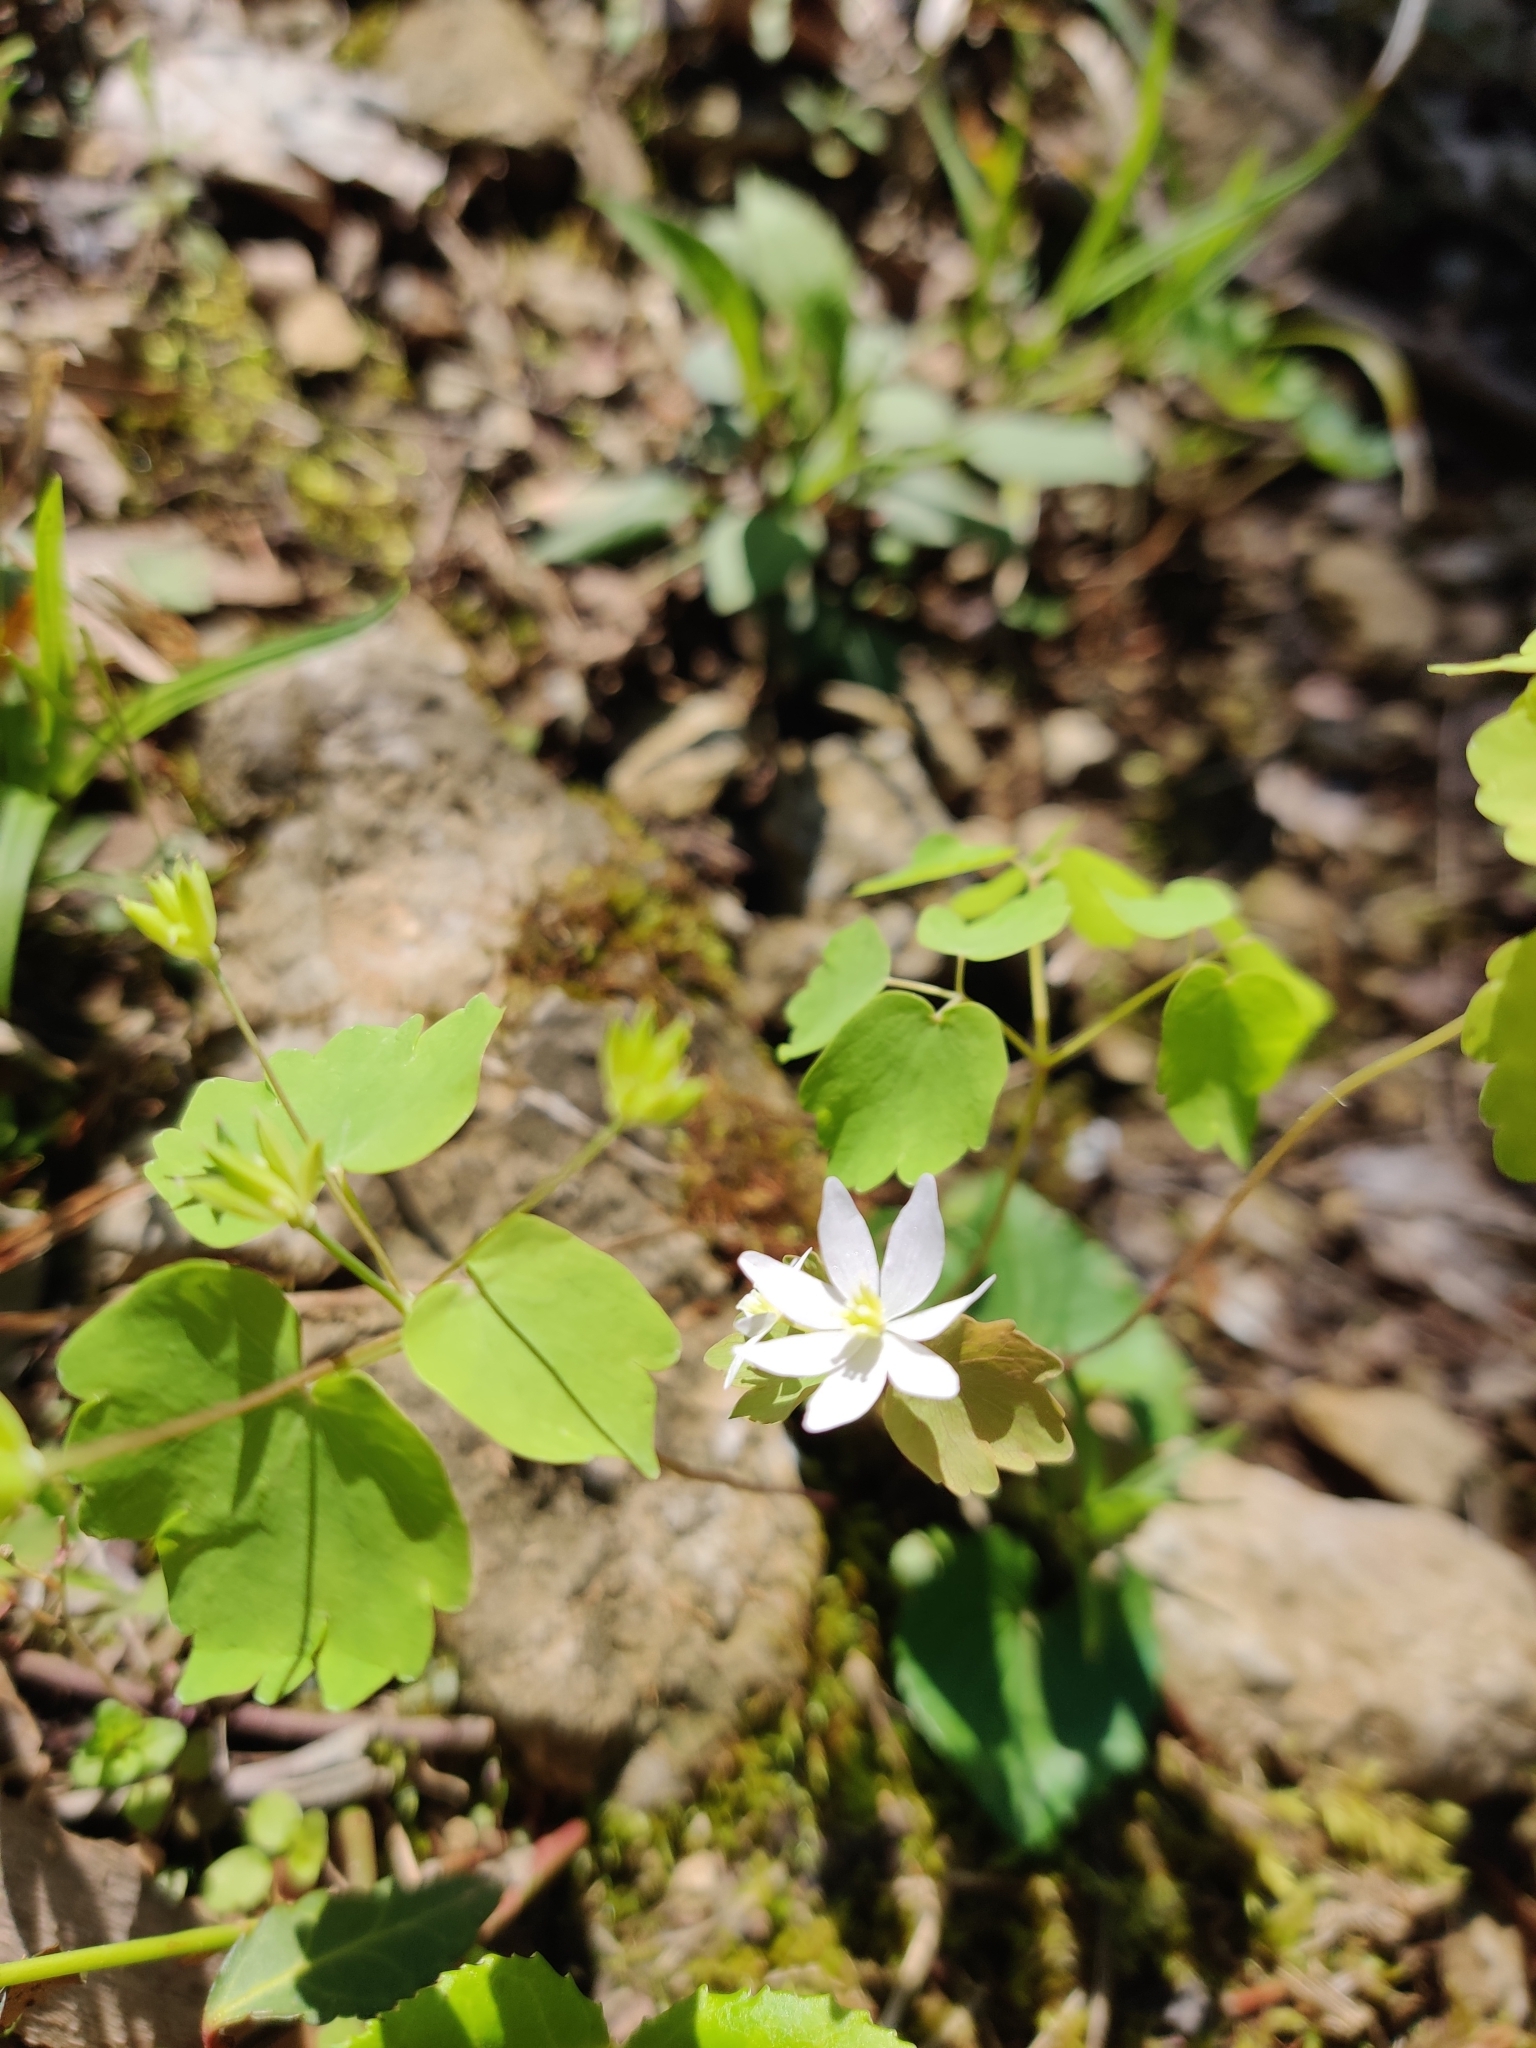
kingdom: Plantae
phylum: Tracheophyta
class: Magnoliopsida
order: Ranunculales
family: Ranunculaceae
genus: Thalictrum
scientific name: Thalictrum thalictroides
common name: Rue-anemone
